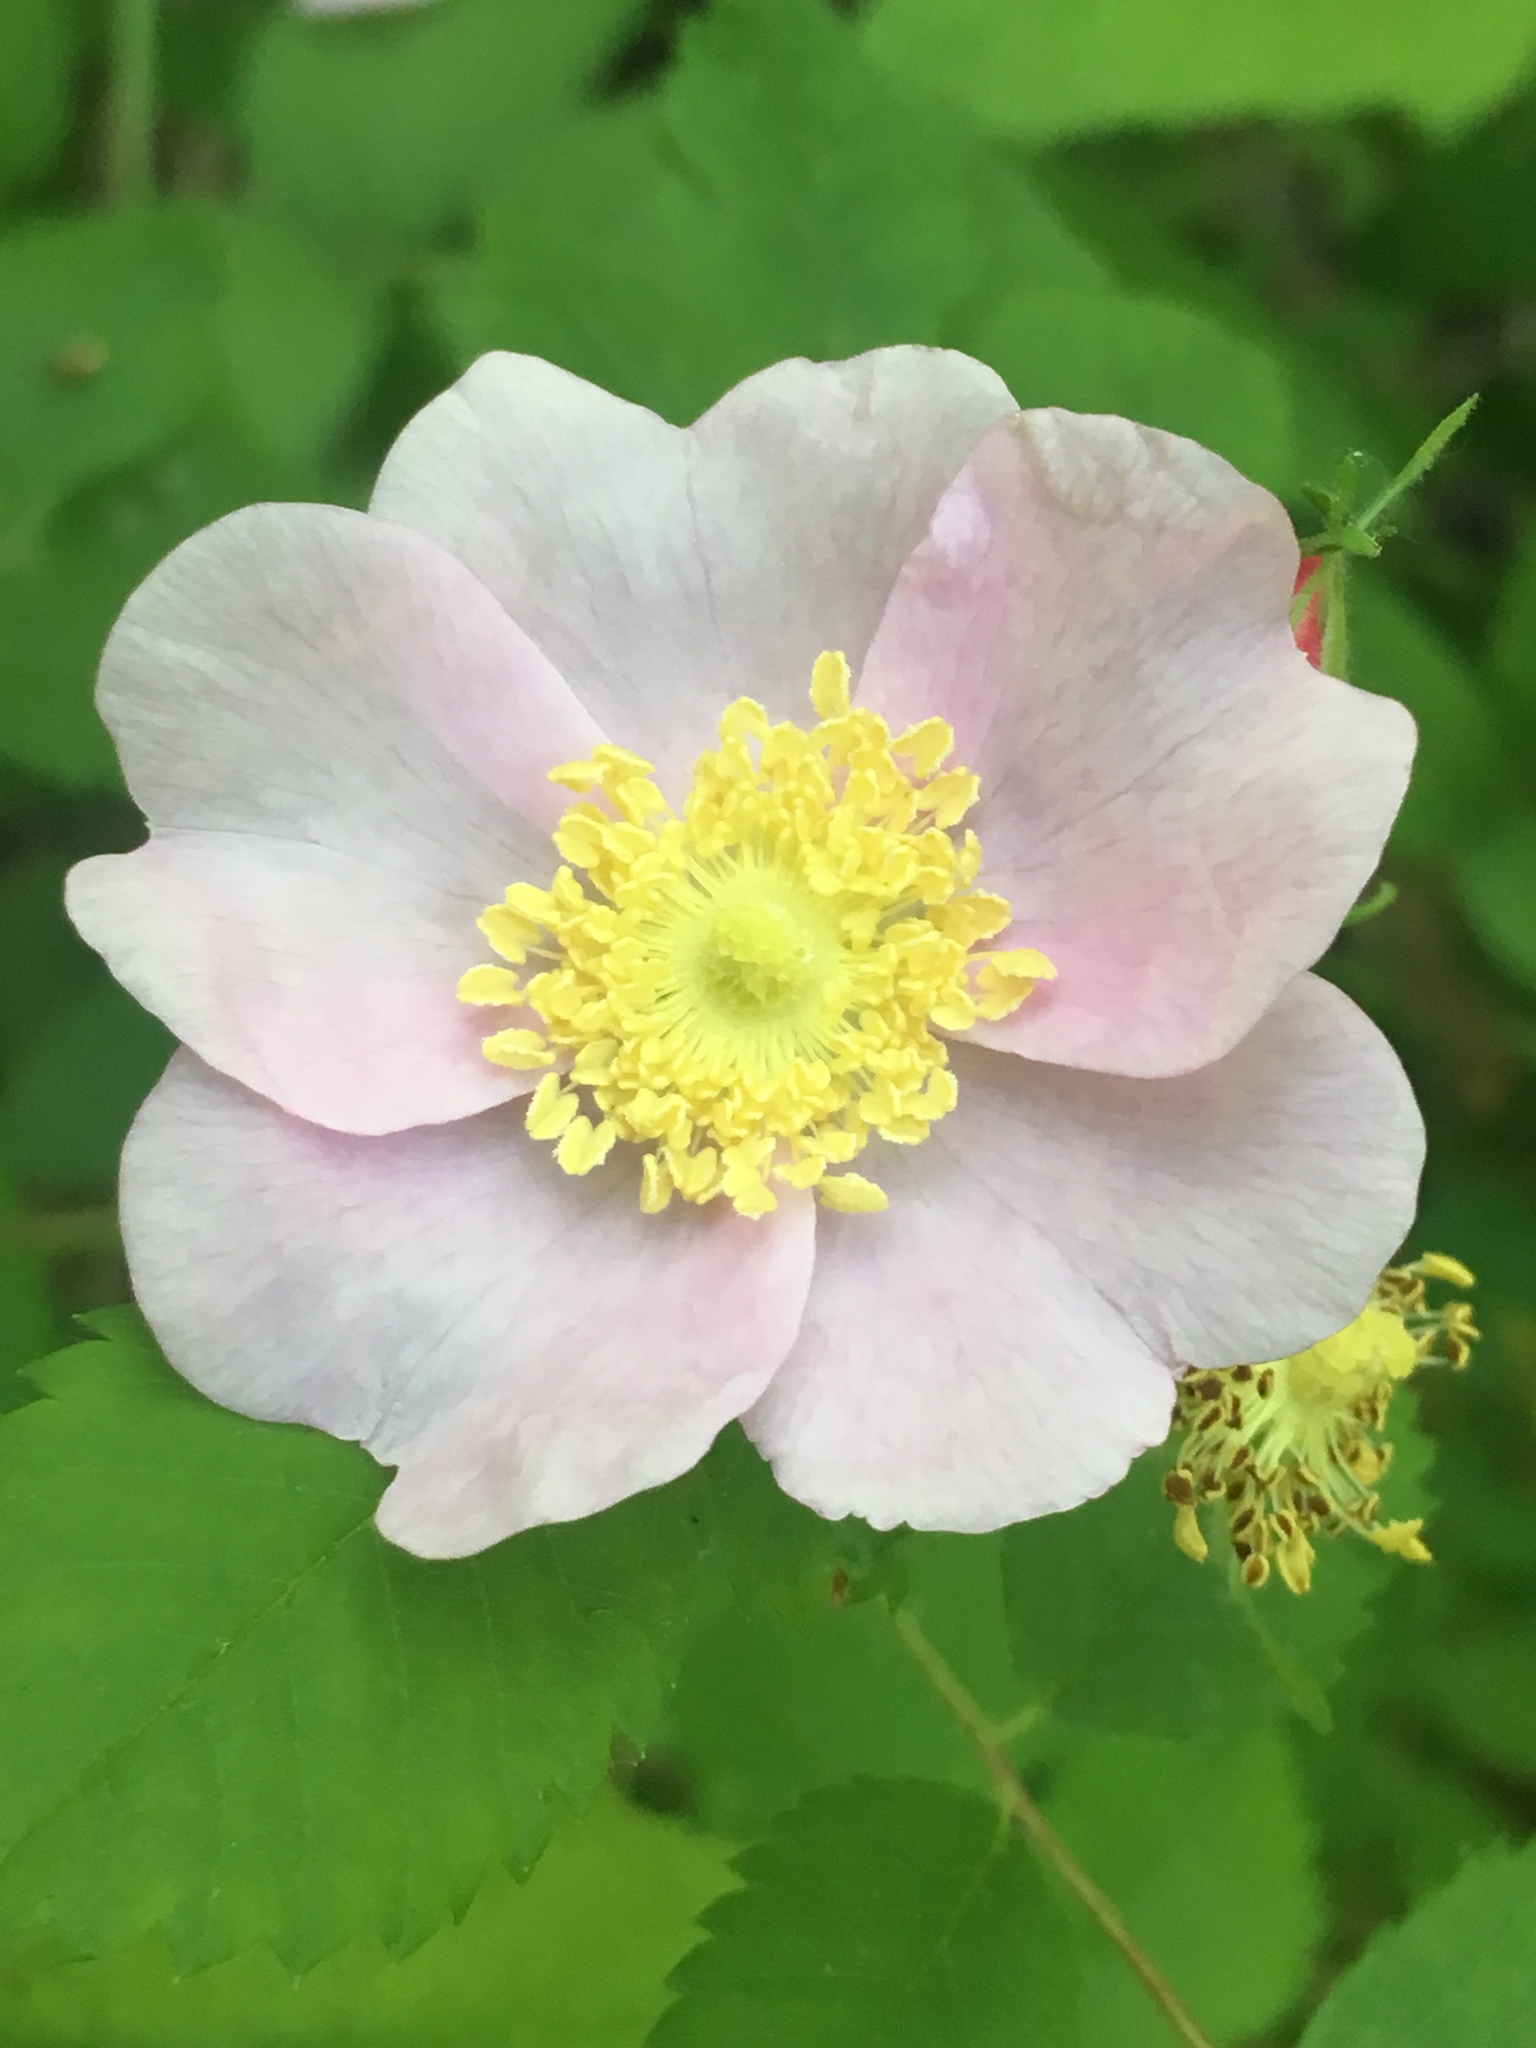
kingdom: Plantae
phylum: Tracheophyta
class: Magnoliopsida
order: Rosales
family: Rosaceae
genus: Rosa
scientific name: Rosa californica
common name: California rose
